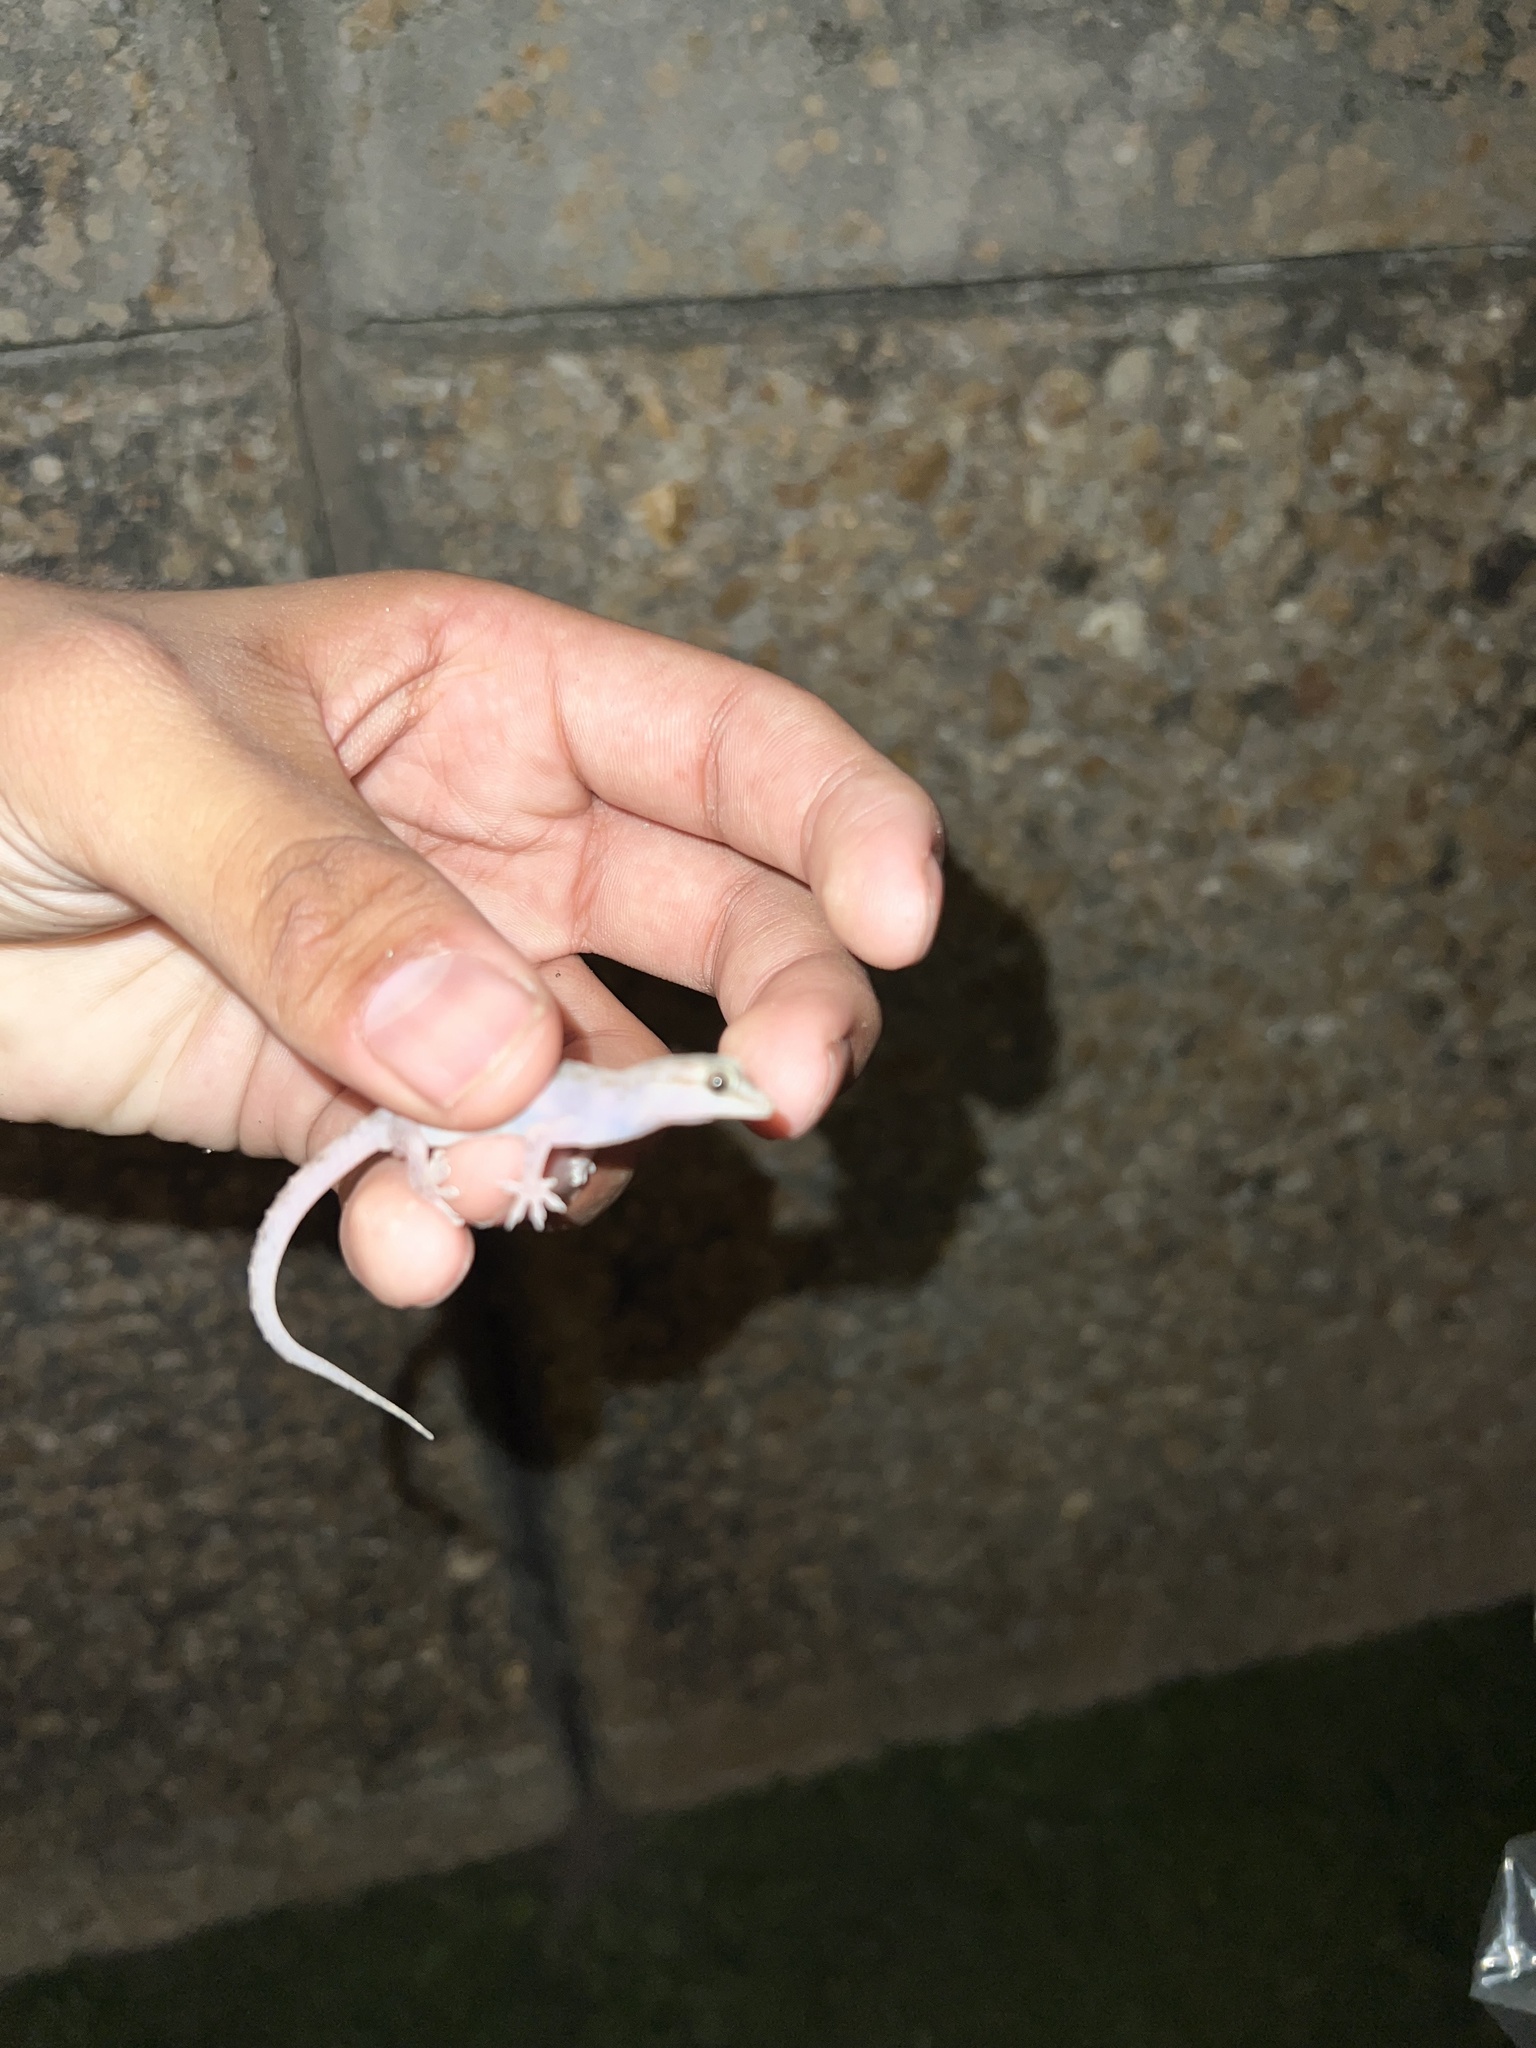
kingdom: Animalia
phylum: Chordata
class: Squamata
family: Gekkonidae
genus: Hemidactylus
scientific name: Hemidactylus parvimaculatus
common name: Spotted house gecko
